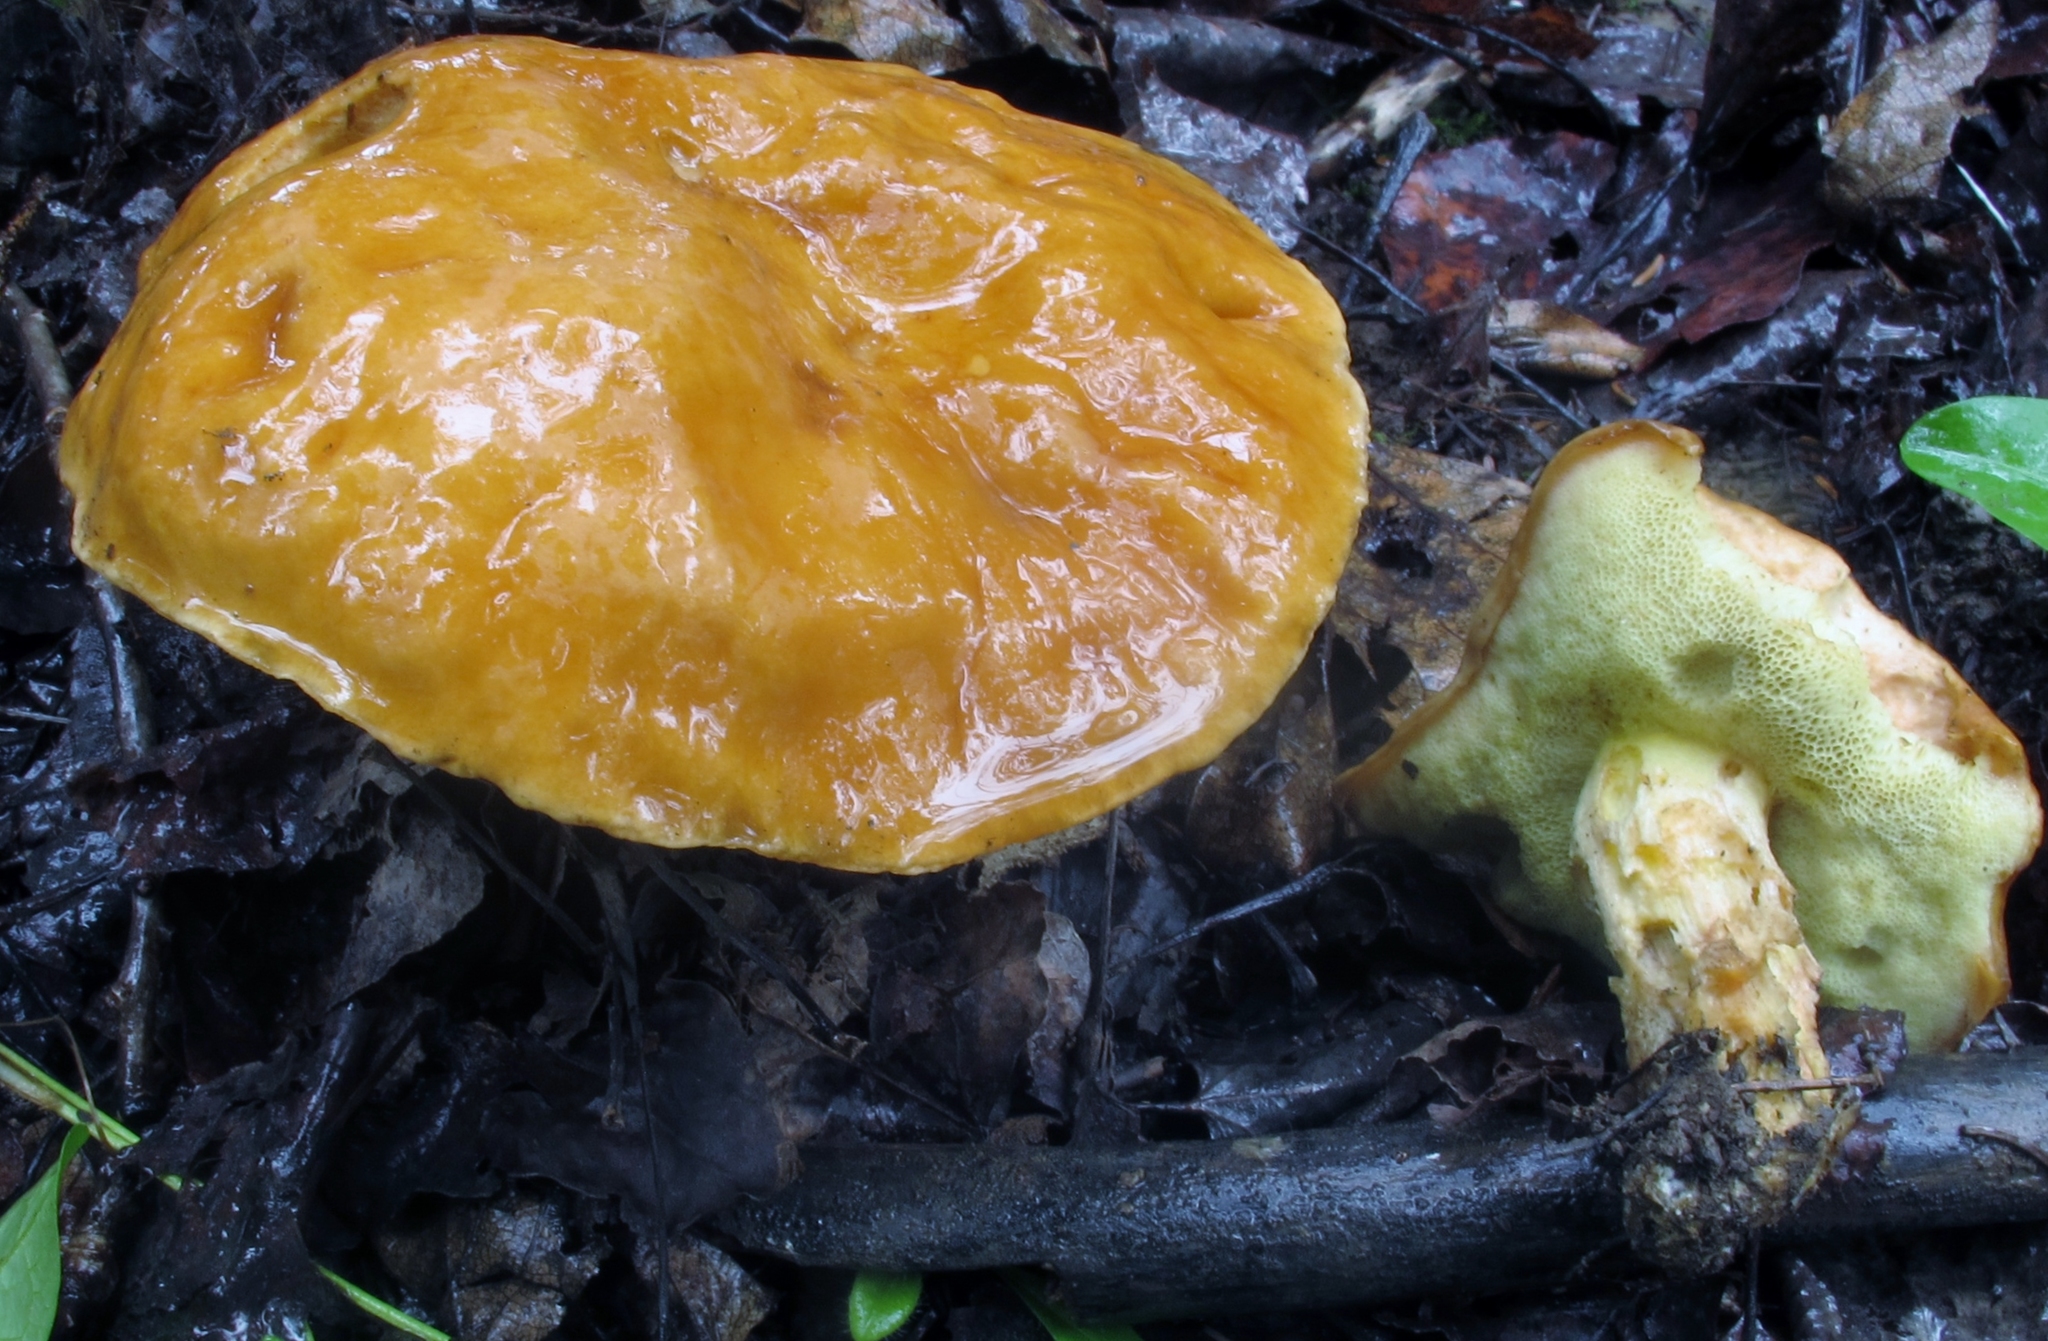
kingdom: Fungi
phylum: Basidiomycota
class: Agaricomycetes
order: Boletales
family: Boletaceae
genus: Hemileccinum
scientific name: Hemileccinum subglabripes
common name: Smoothish-stemmed bolete
